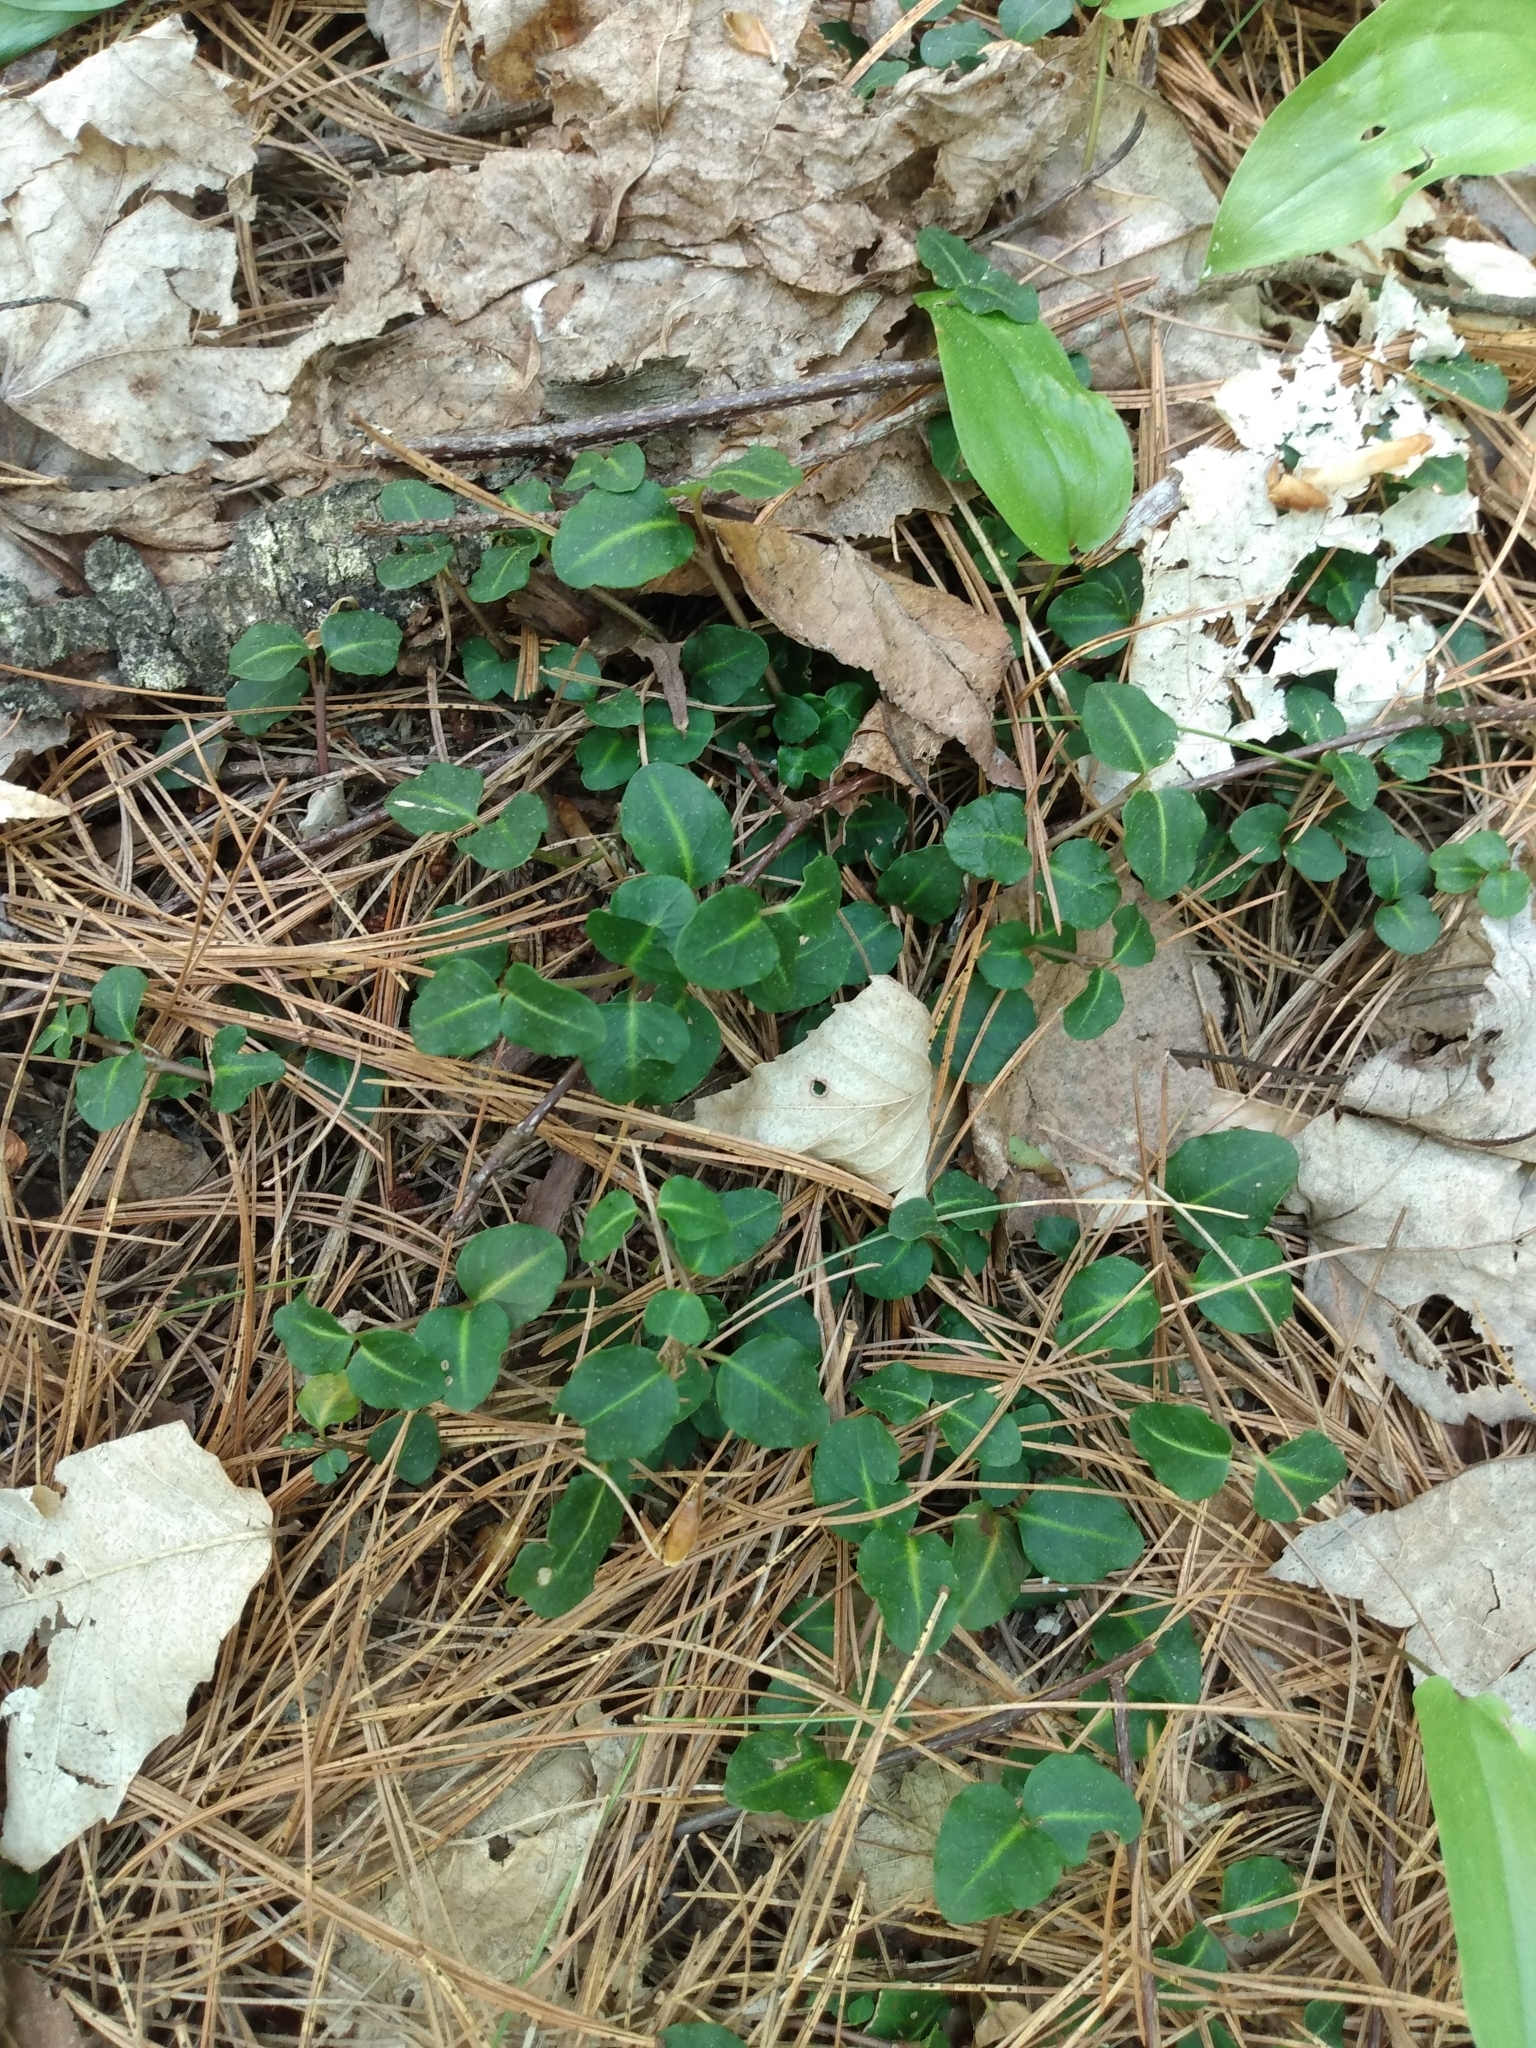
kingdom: Plantae
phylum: Tracheophyta
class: Magnoliopsida
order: Gentianales
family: Rubiaceae
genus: Mitchella
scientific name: Mitchella repens
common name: Partridge-berry
